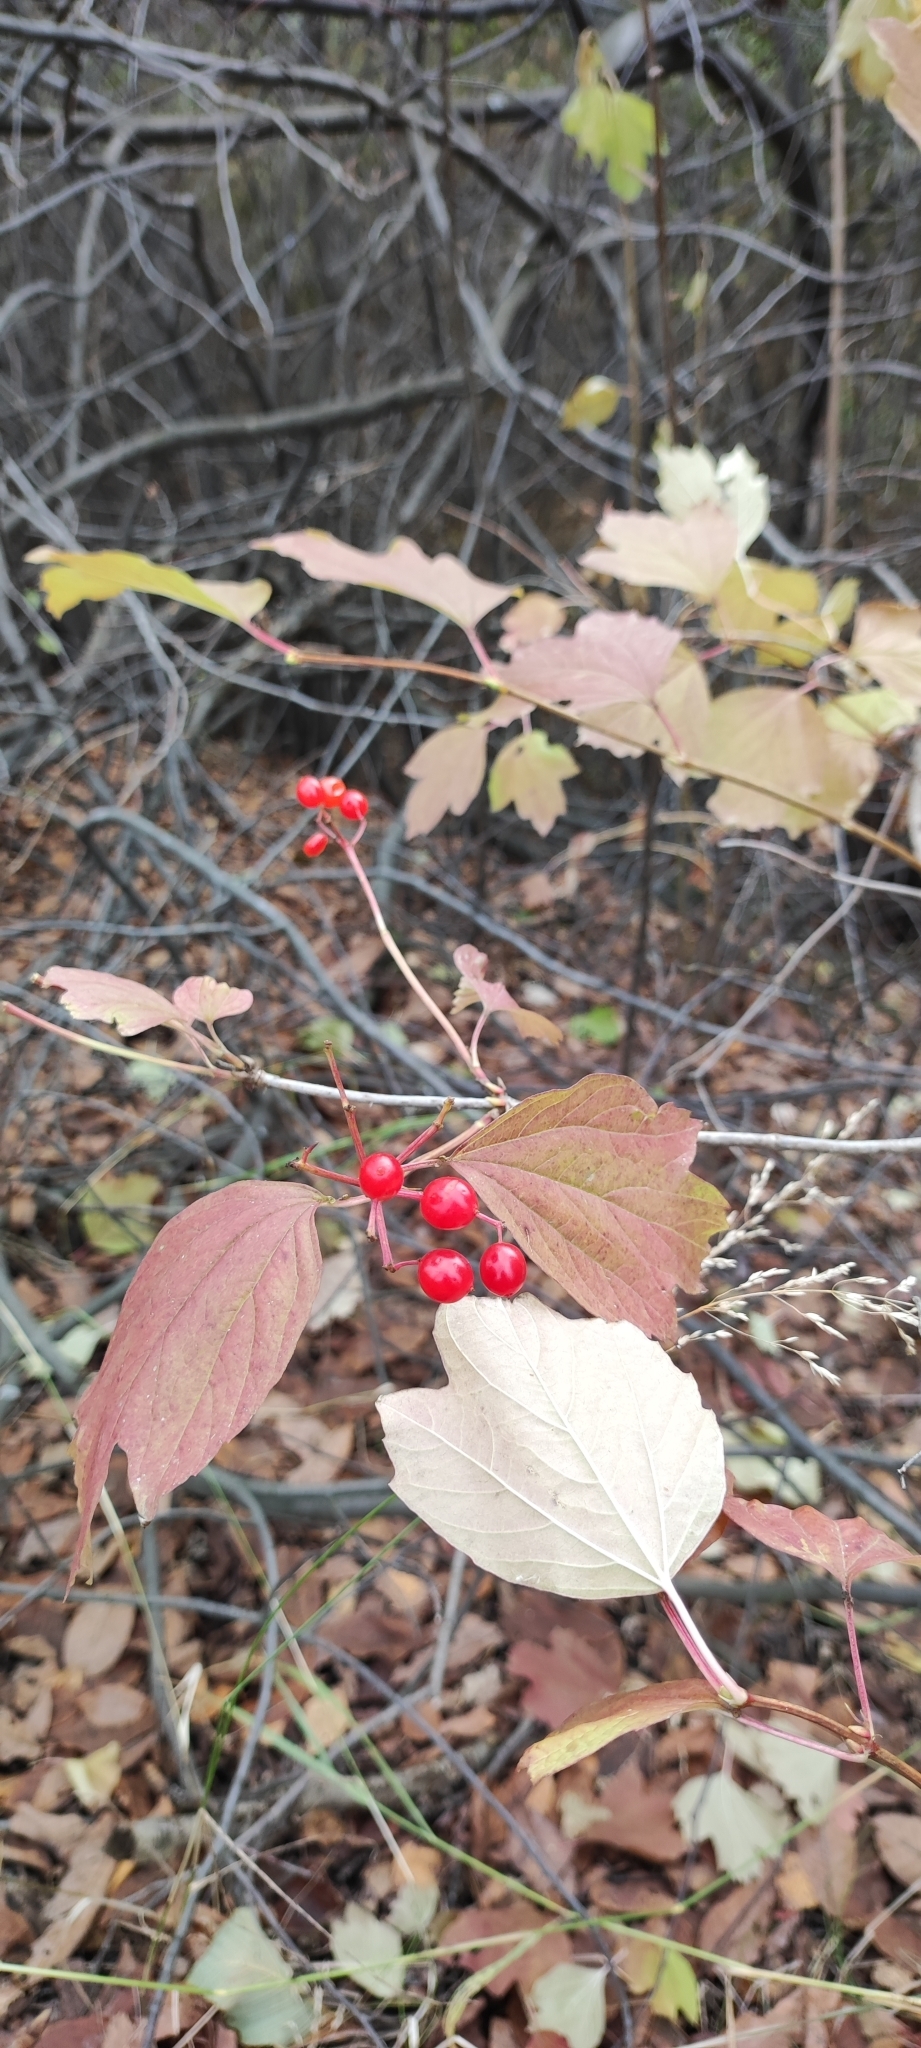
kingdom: Plantae
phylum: Tracheophyta
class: Magnoliopsida
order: Dipsacales
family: Viburnaceae
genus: Viburnum
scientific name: Viburnum opulus
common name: Guelder-rose
